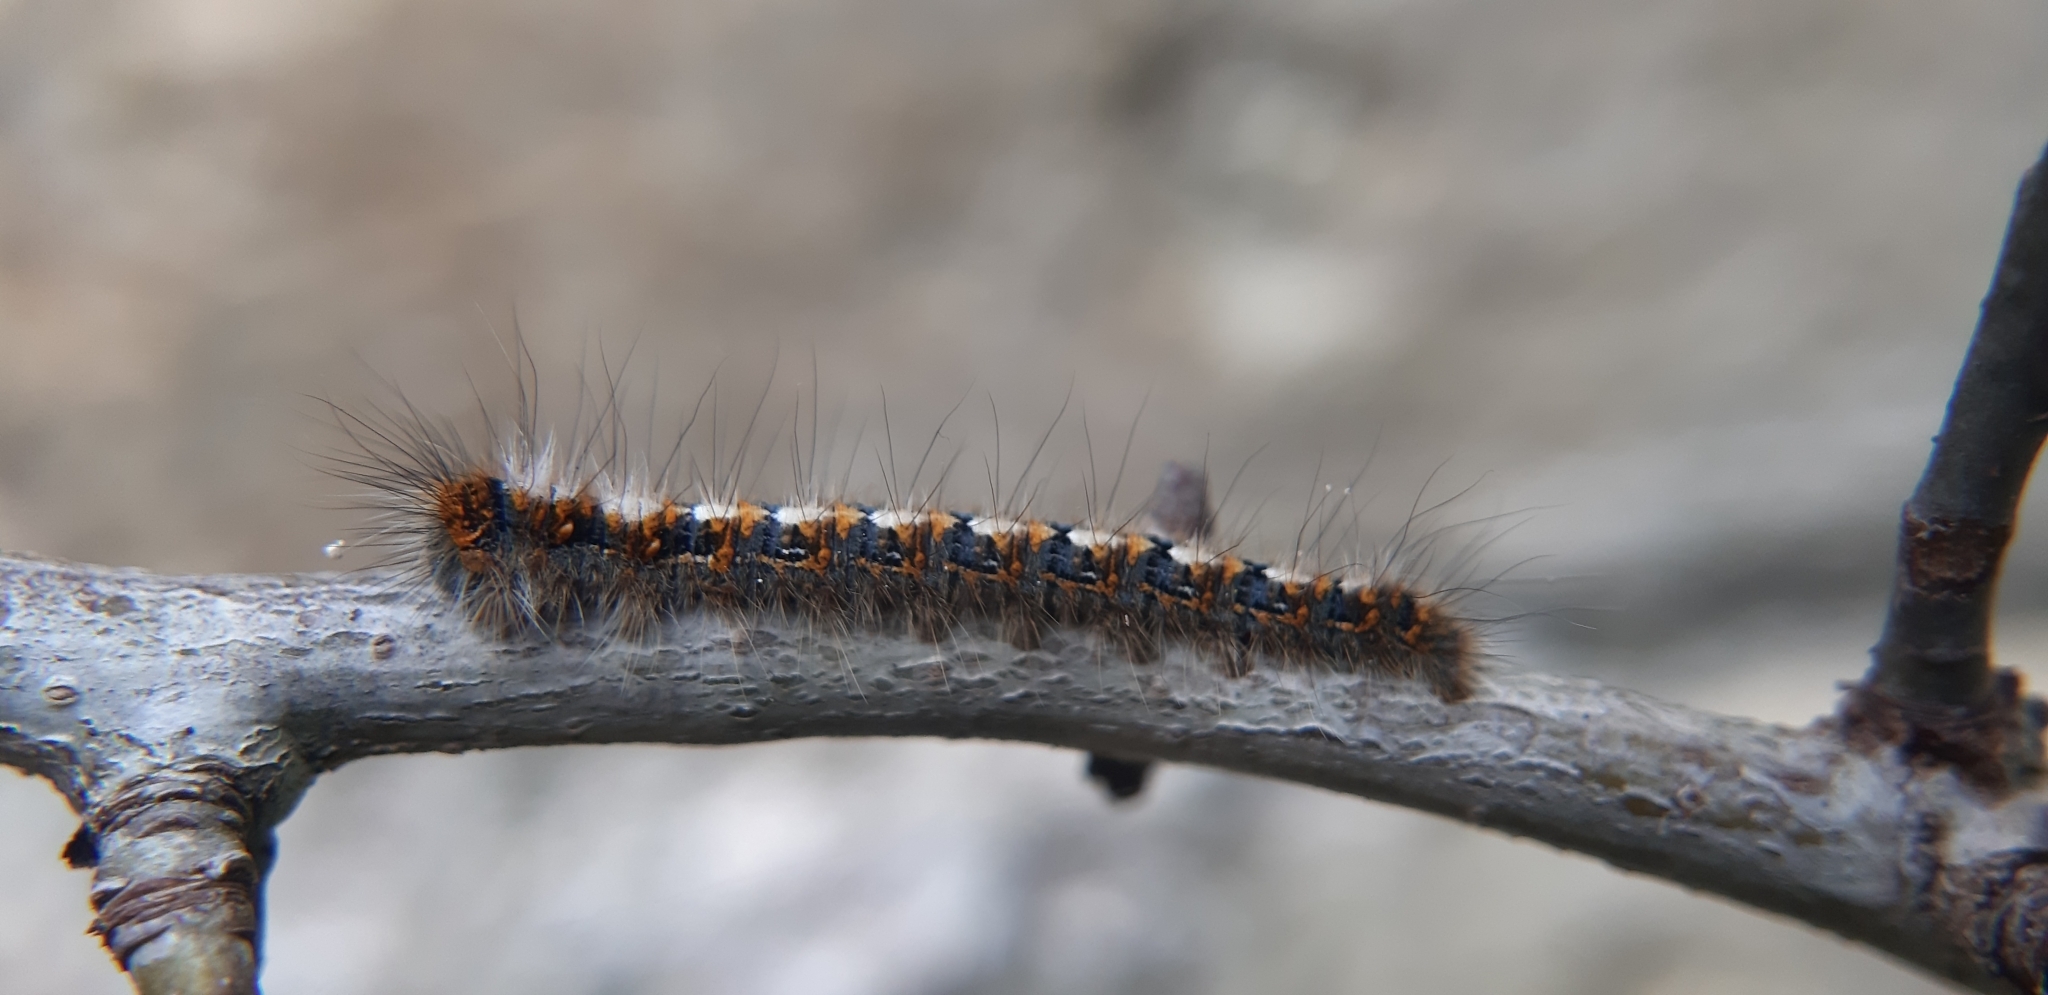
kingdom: Animalia
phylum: Arthropoda
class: Insecta
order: Lepidoptera
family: Lasiocampidae
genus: Lasiocampa
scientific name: Lasiocampa quercus
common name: Oak eggar
